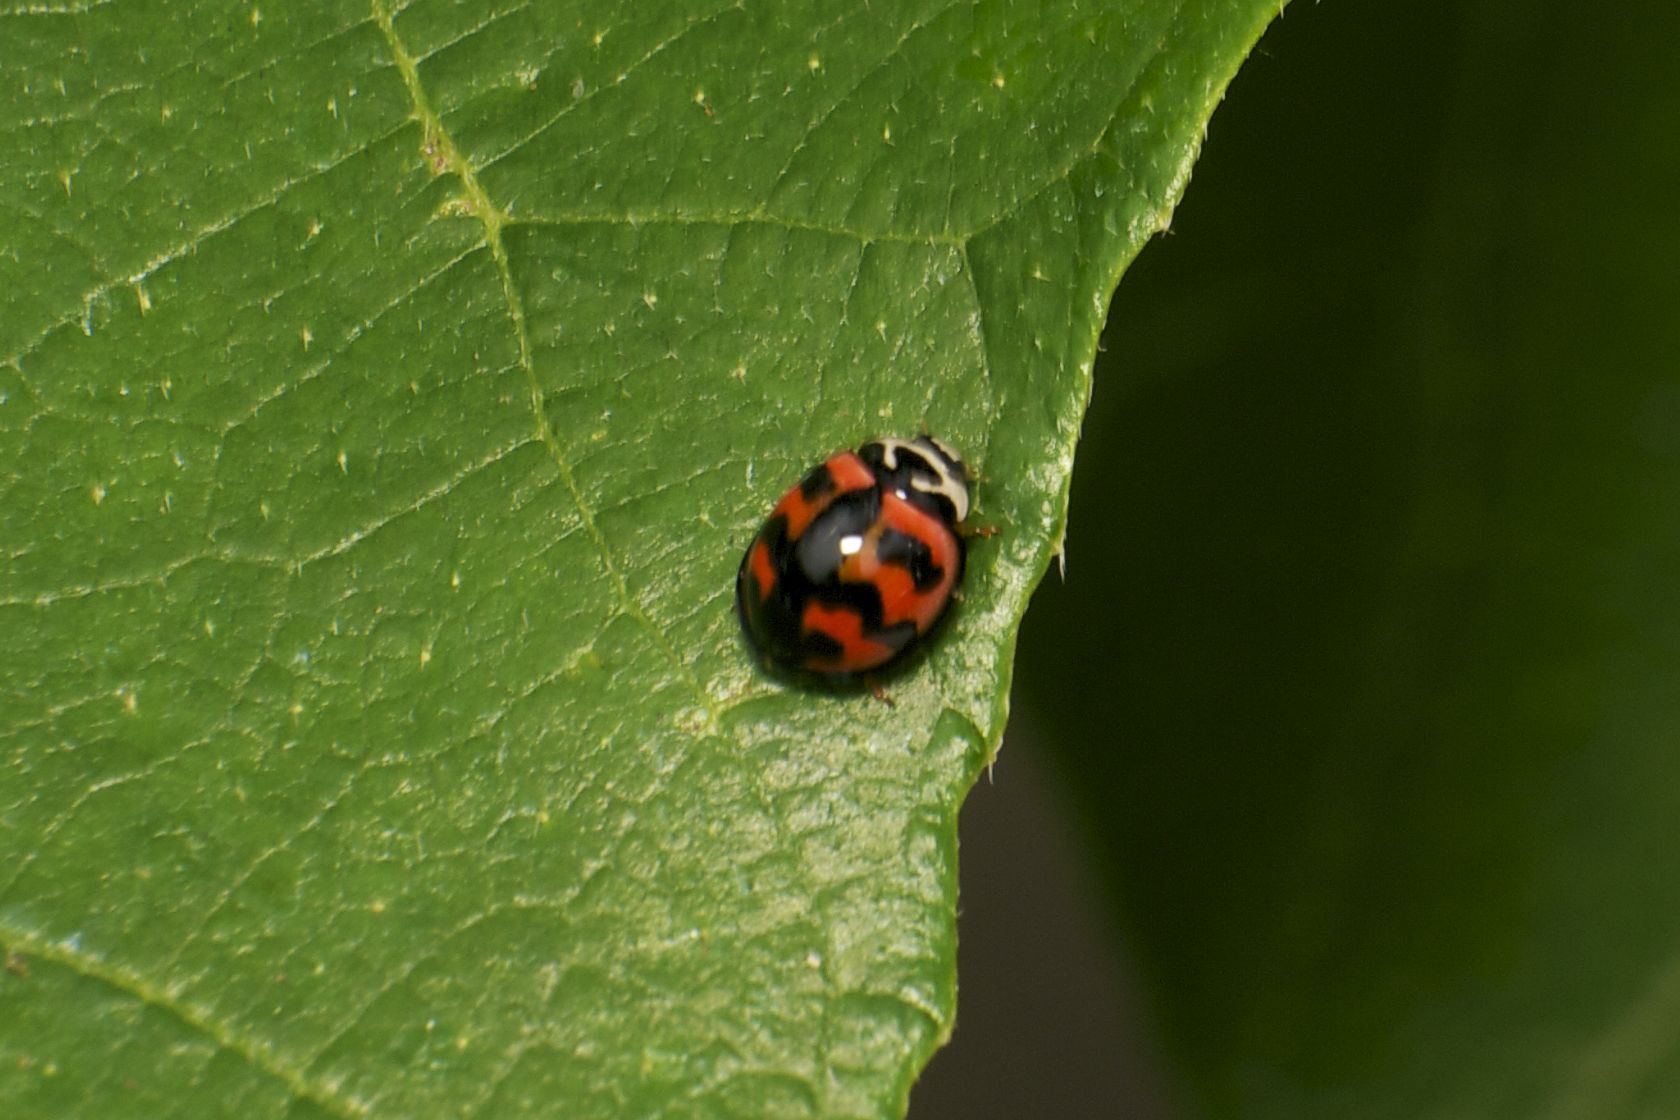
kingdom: Animalia
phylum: Arthropoda
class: Insecta
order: Coleoptera
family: Coccinellidae
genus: Cheilomenes
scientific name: Cheilomenes sexmaculata
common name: Ladybird beetle
